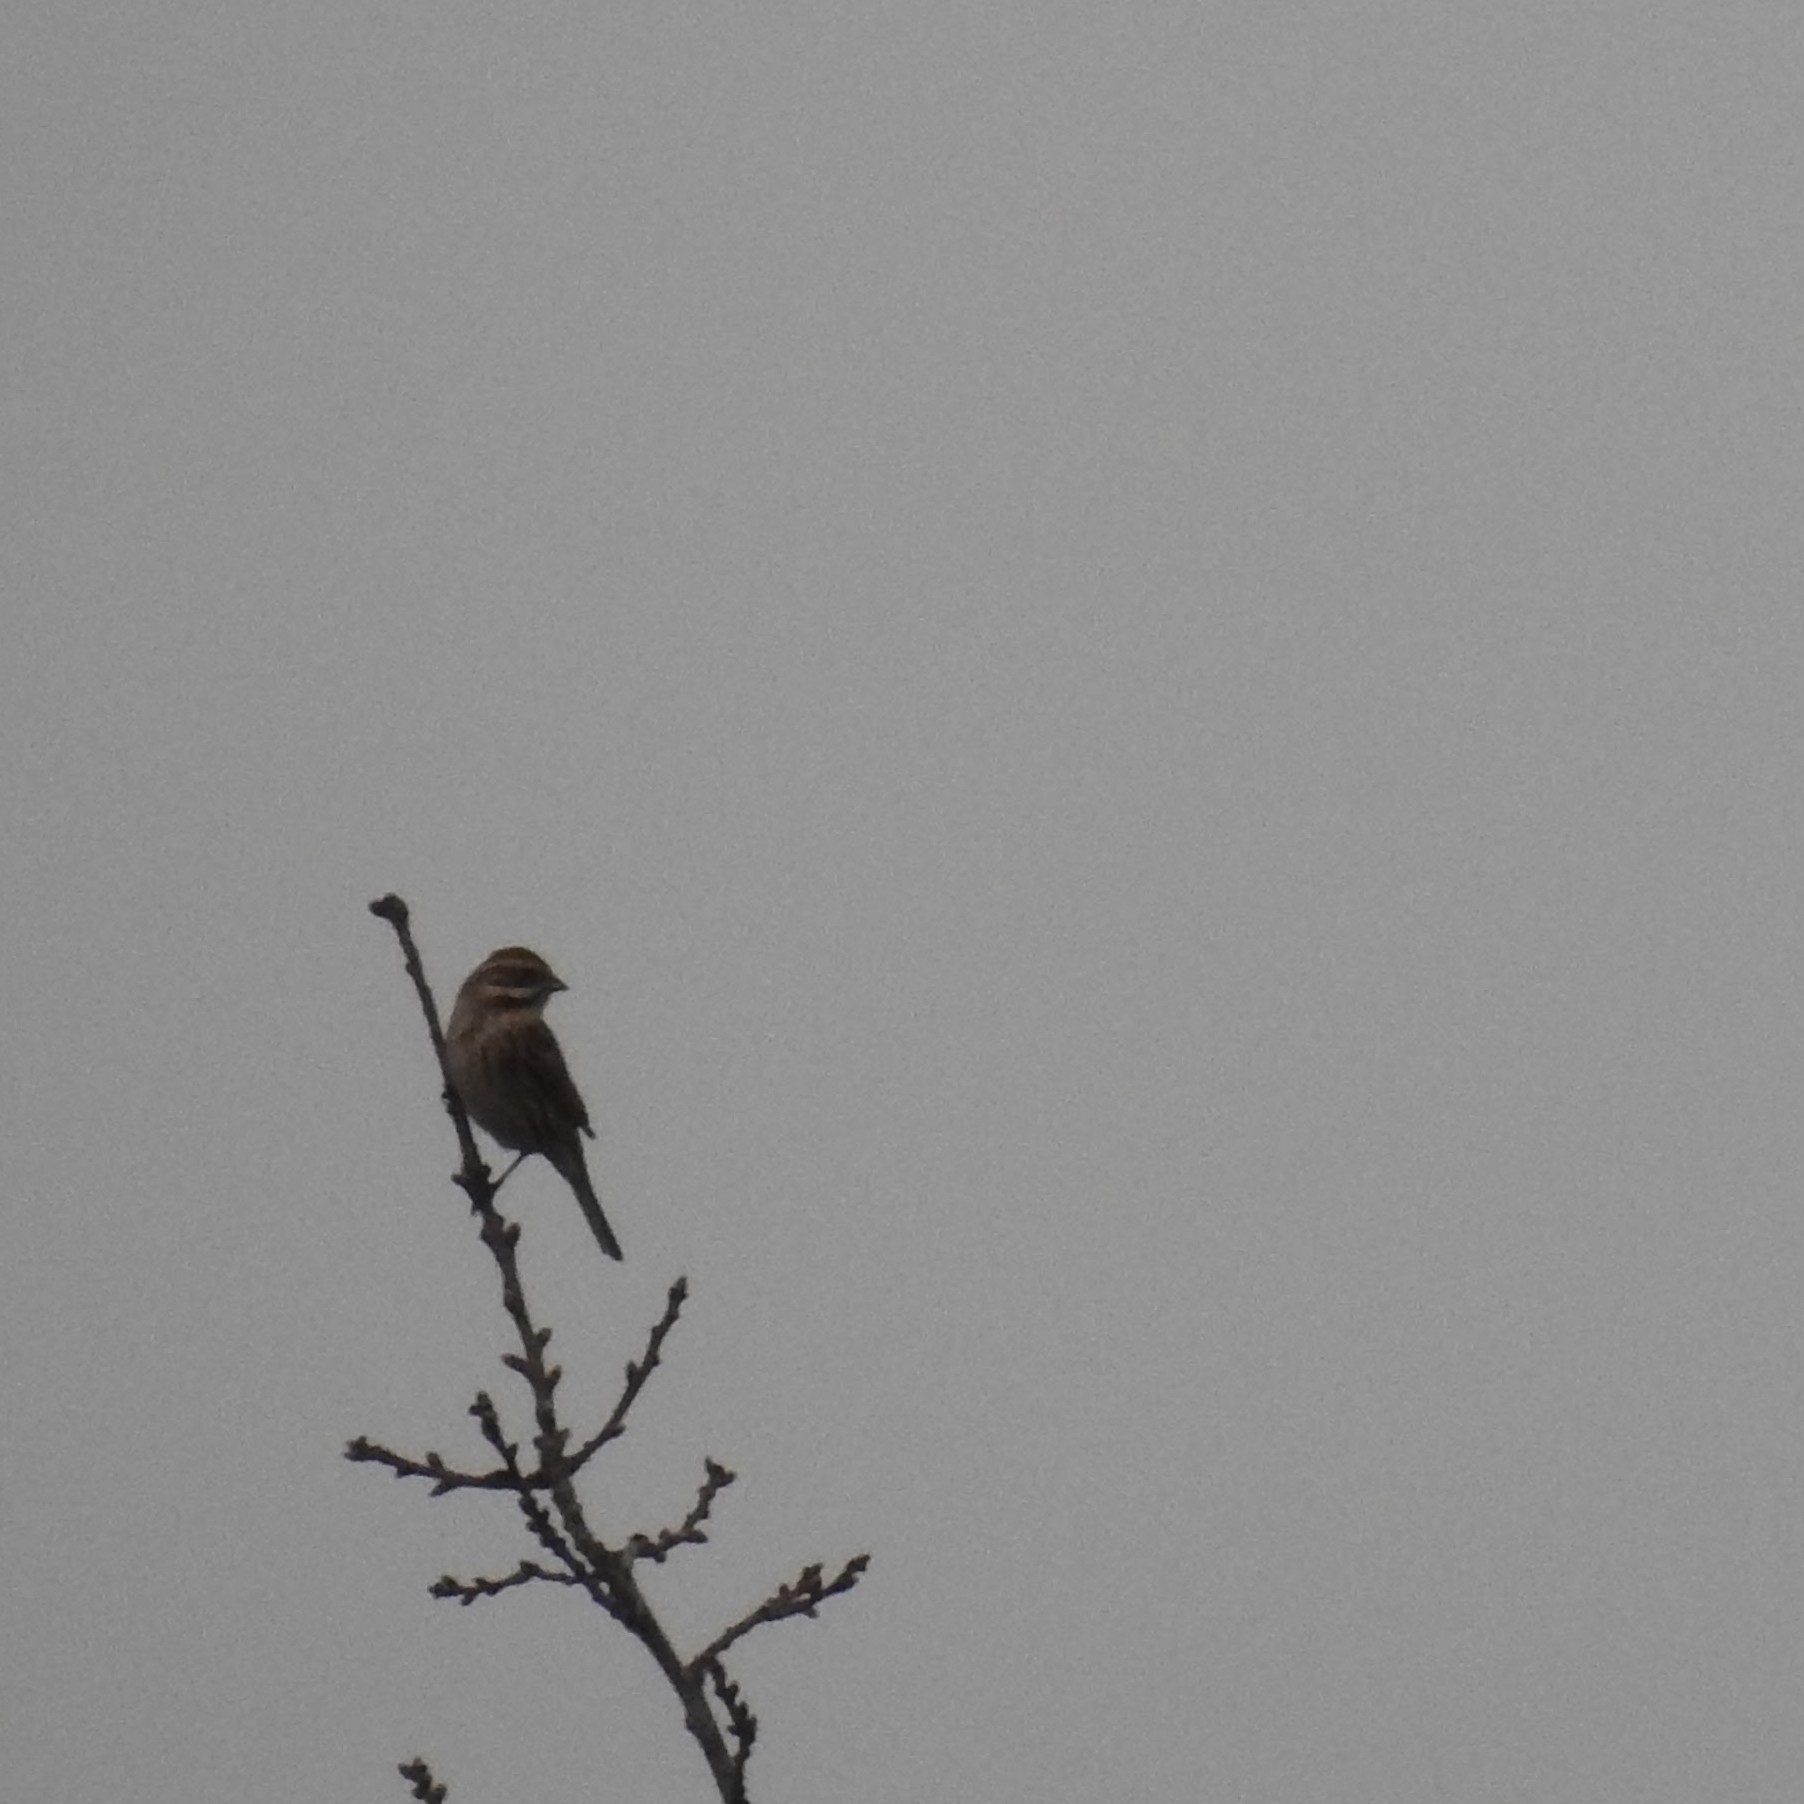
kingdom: Animalia
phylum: Chordata
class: Aves
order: Passeriformes
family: Emberizidae
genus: Emberiza
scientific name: Emberiza schoeniclus
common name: Reed bunting
